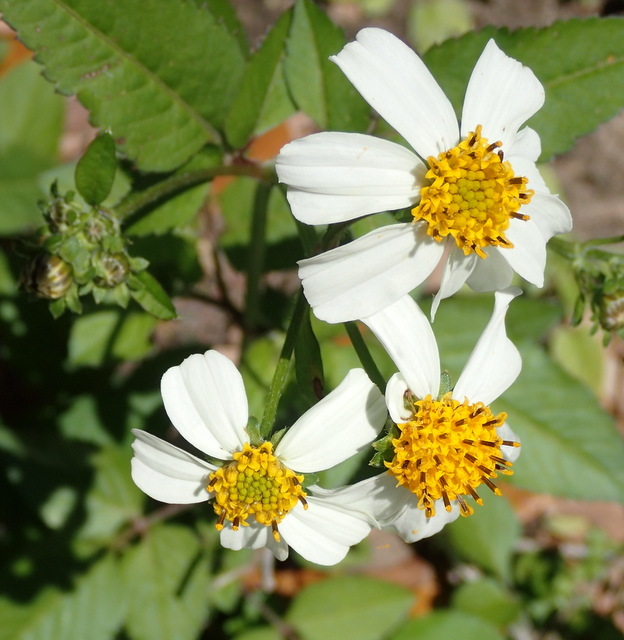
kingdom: Plantae
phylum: Tracheophyta
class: Magnoliopsida
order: Asterales
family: Asteraceae
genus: Bidens
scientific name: Bidens alba
